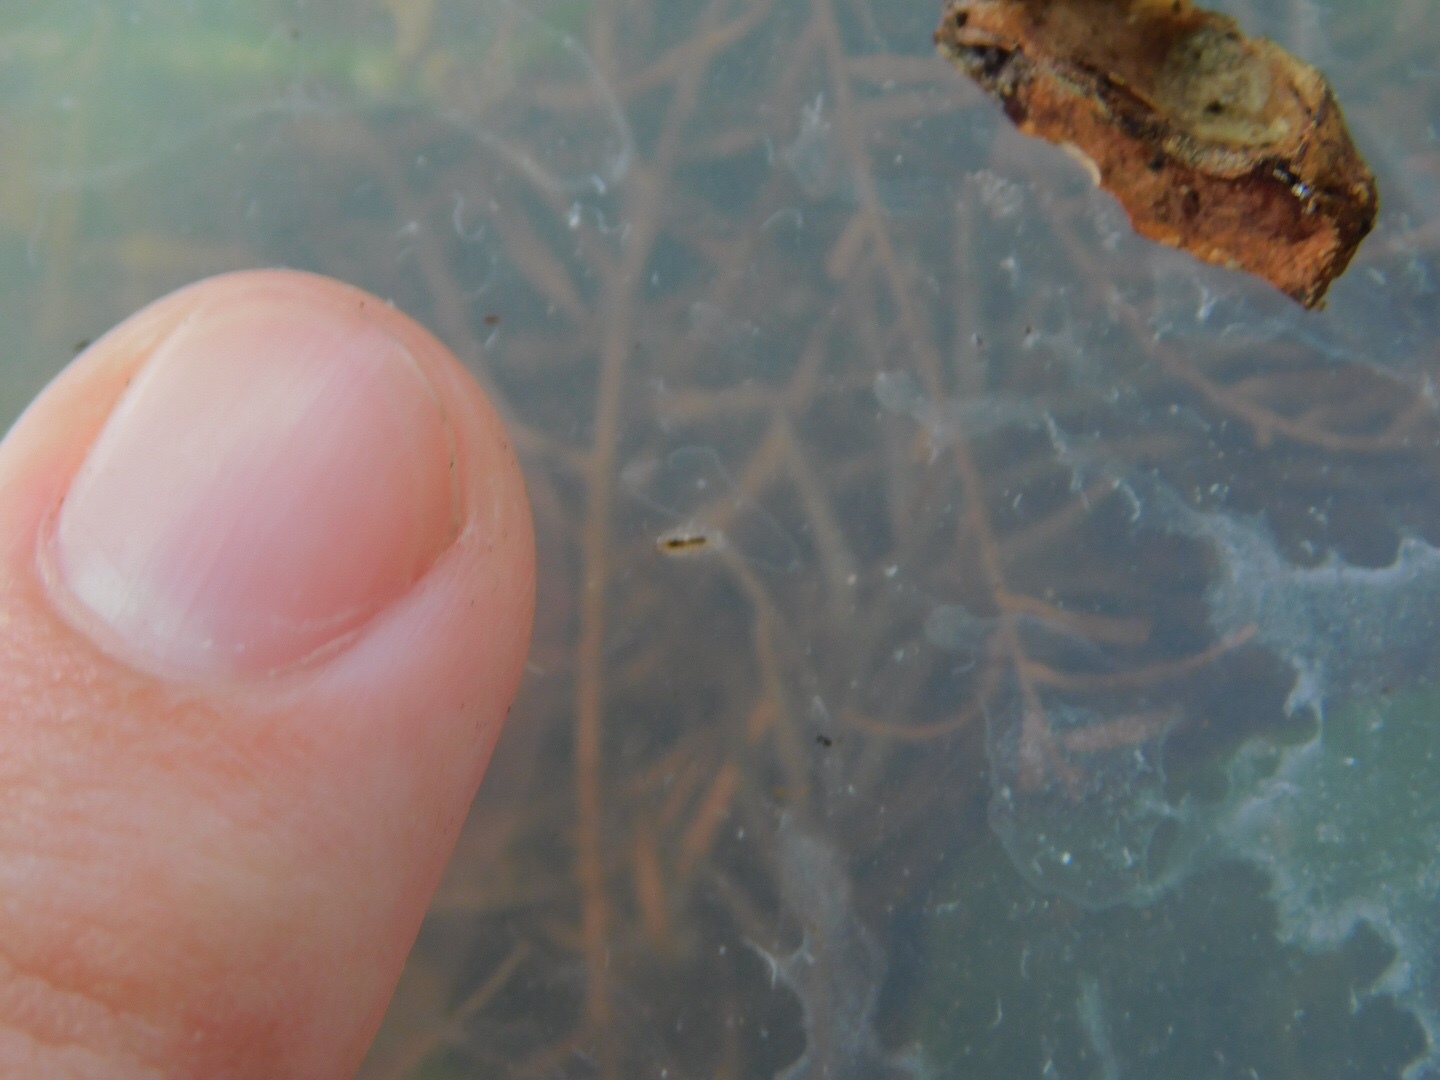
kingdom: Animalia
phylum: Arthropoda
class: Malacostraca
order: Isopoda
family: Philosciidae
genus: Atlantoscia
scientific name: Atlantoscia floridana
